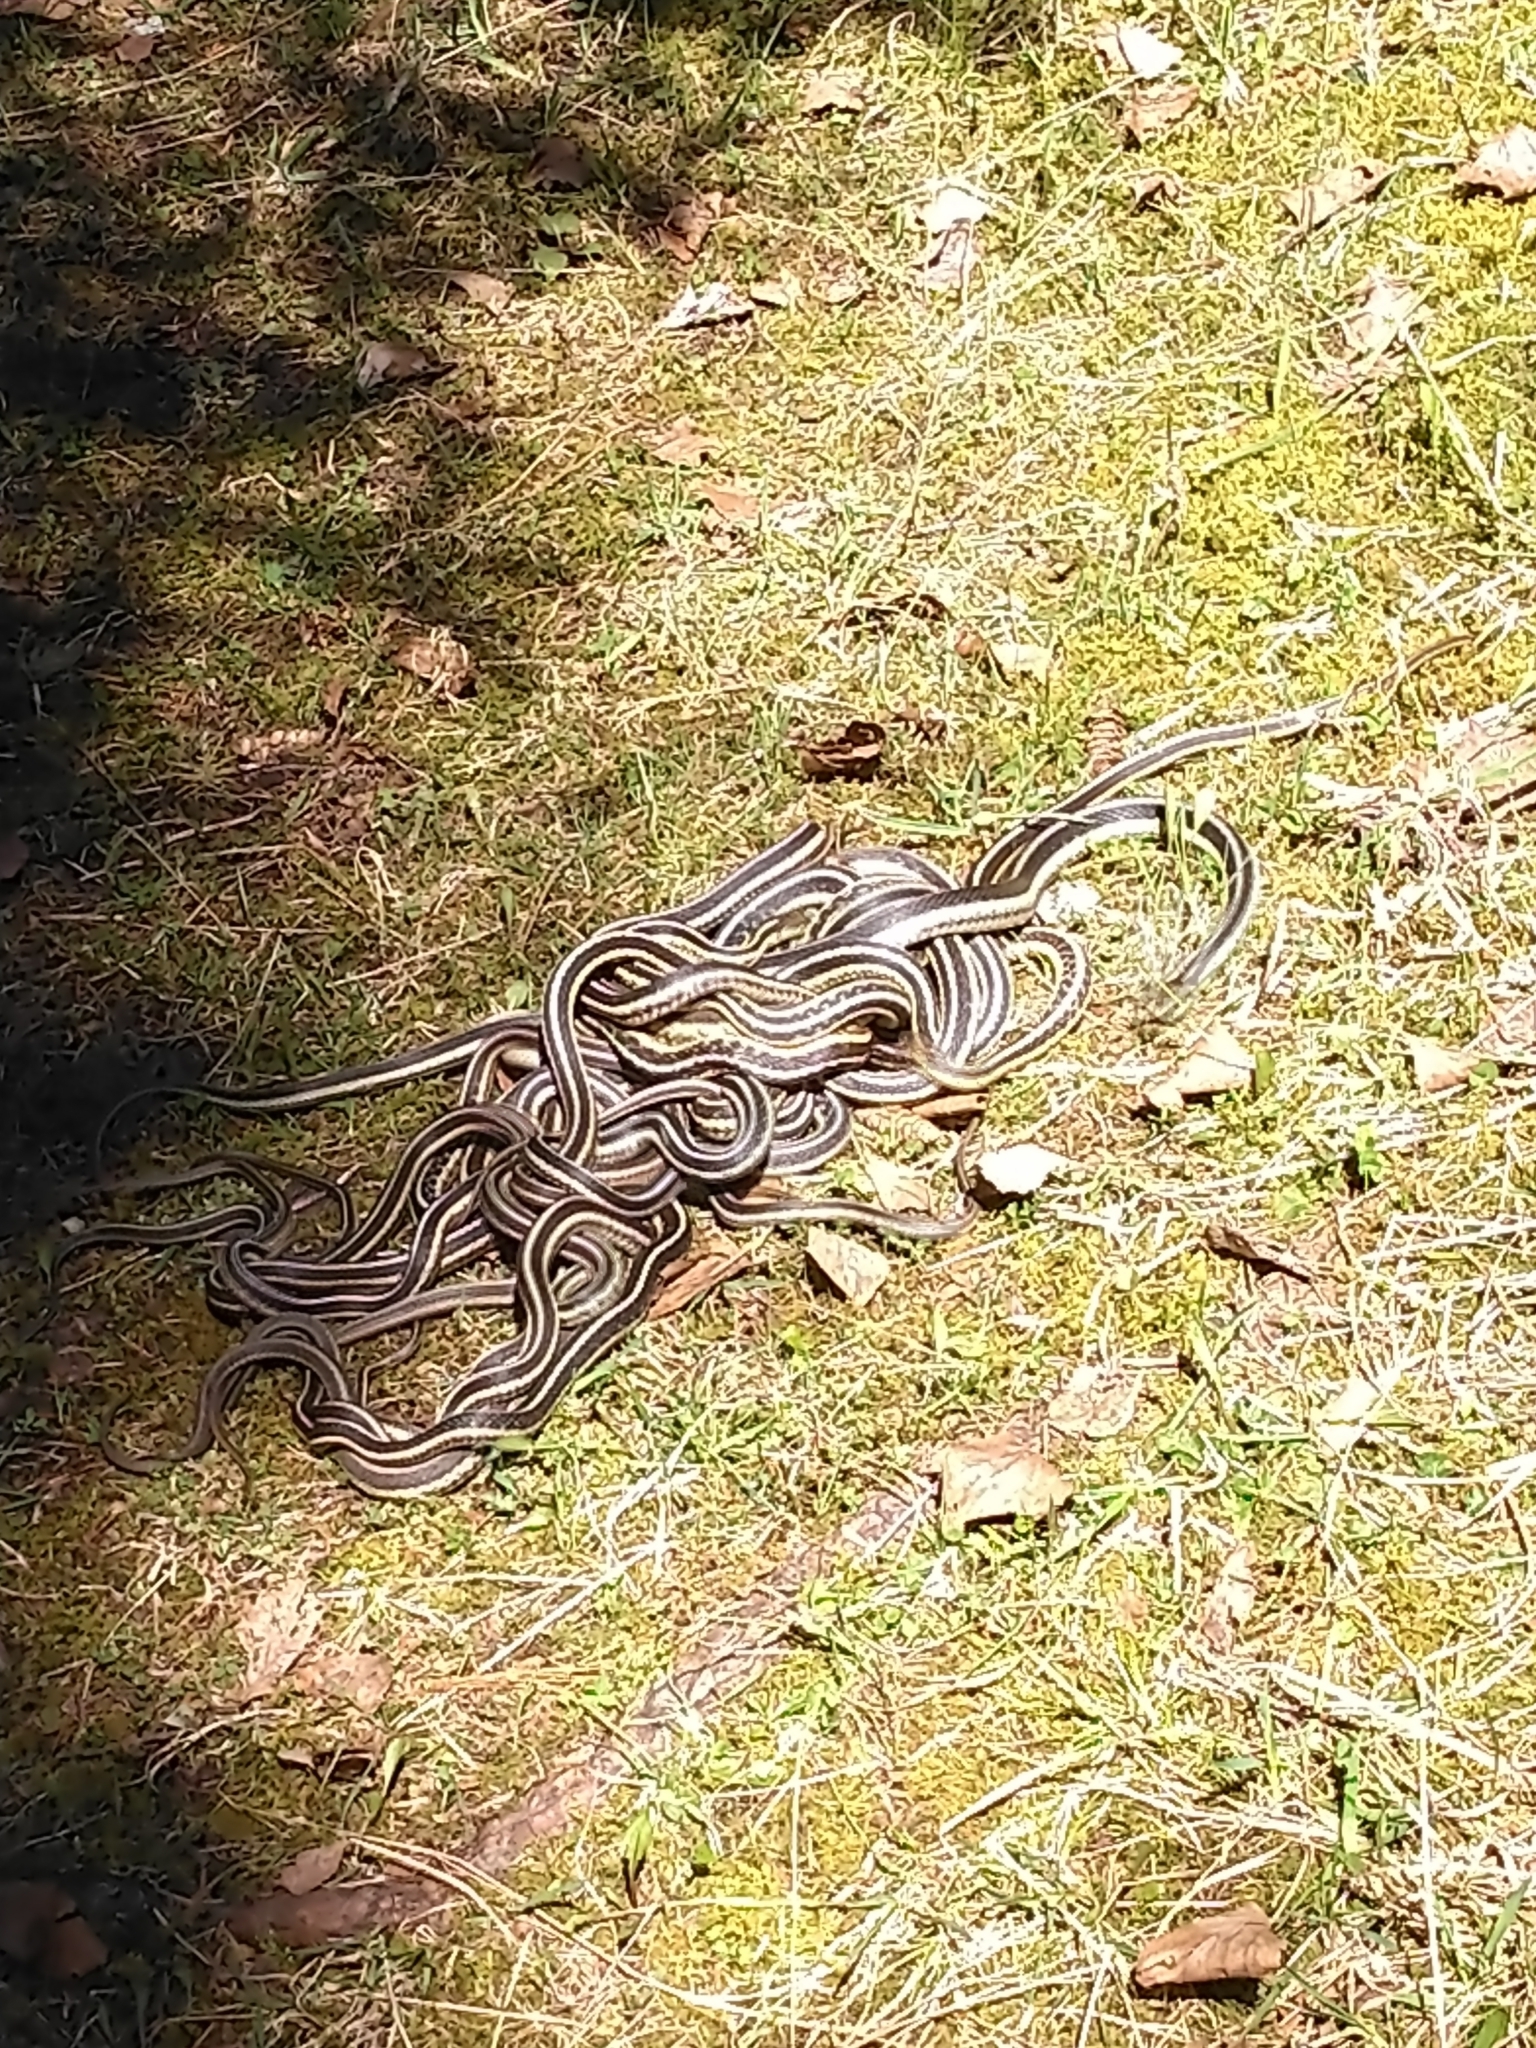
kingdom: Animalia
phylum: Chordata
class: Squamata
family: Colubridae
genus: Thamnophis
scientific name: Thamnophis sirtalis
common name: Common garter snake
